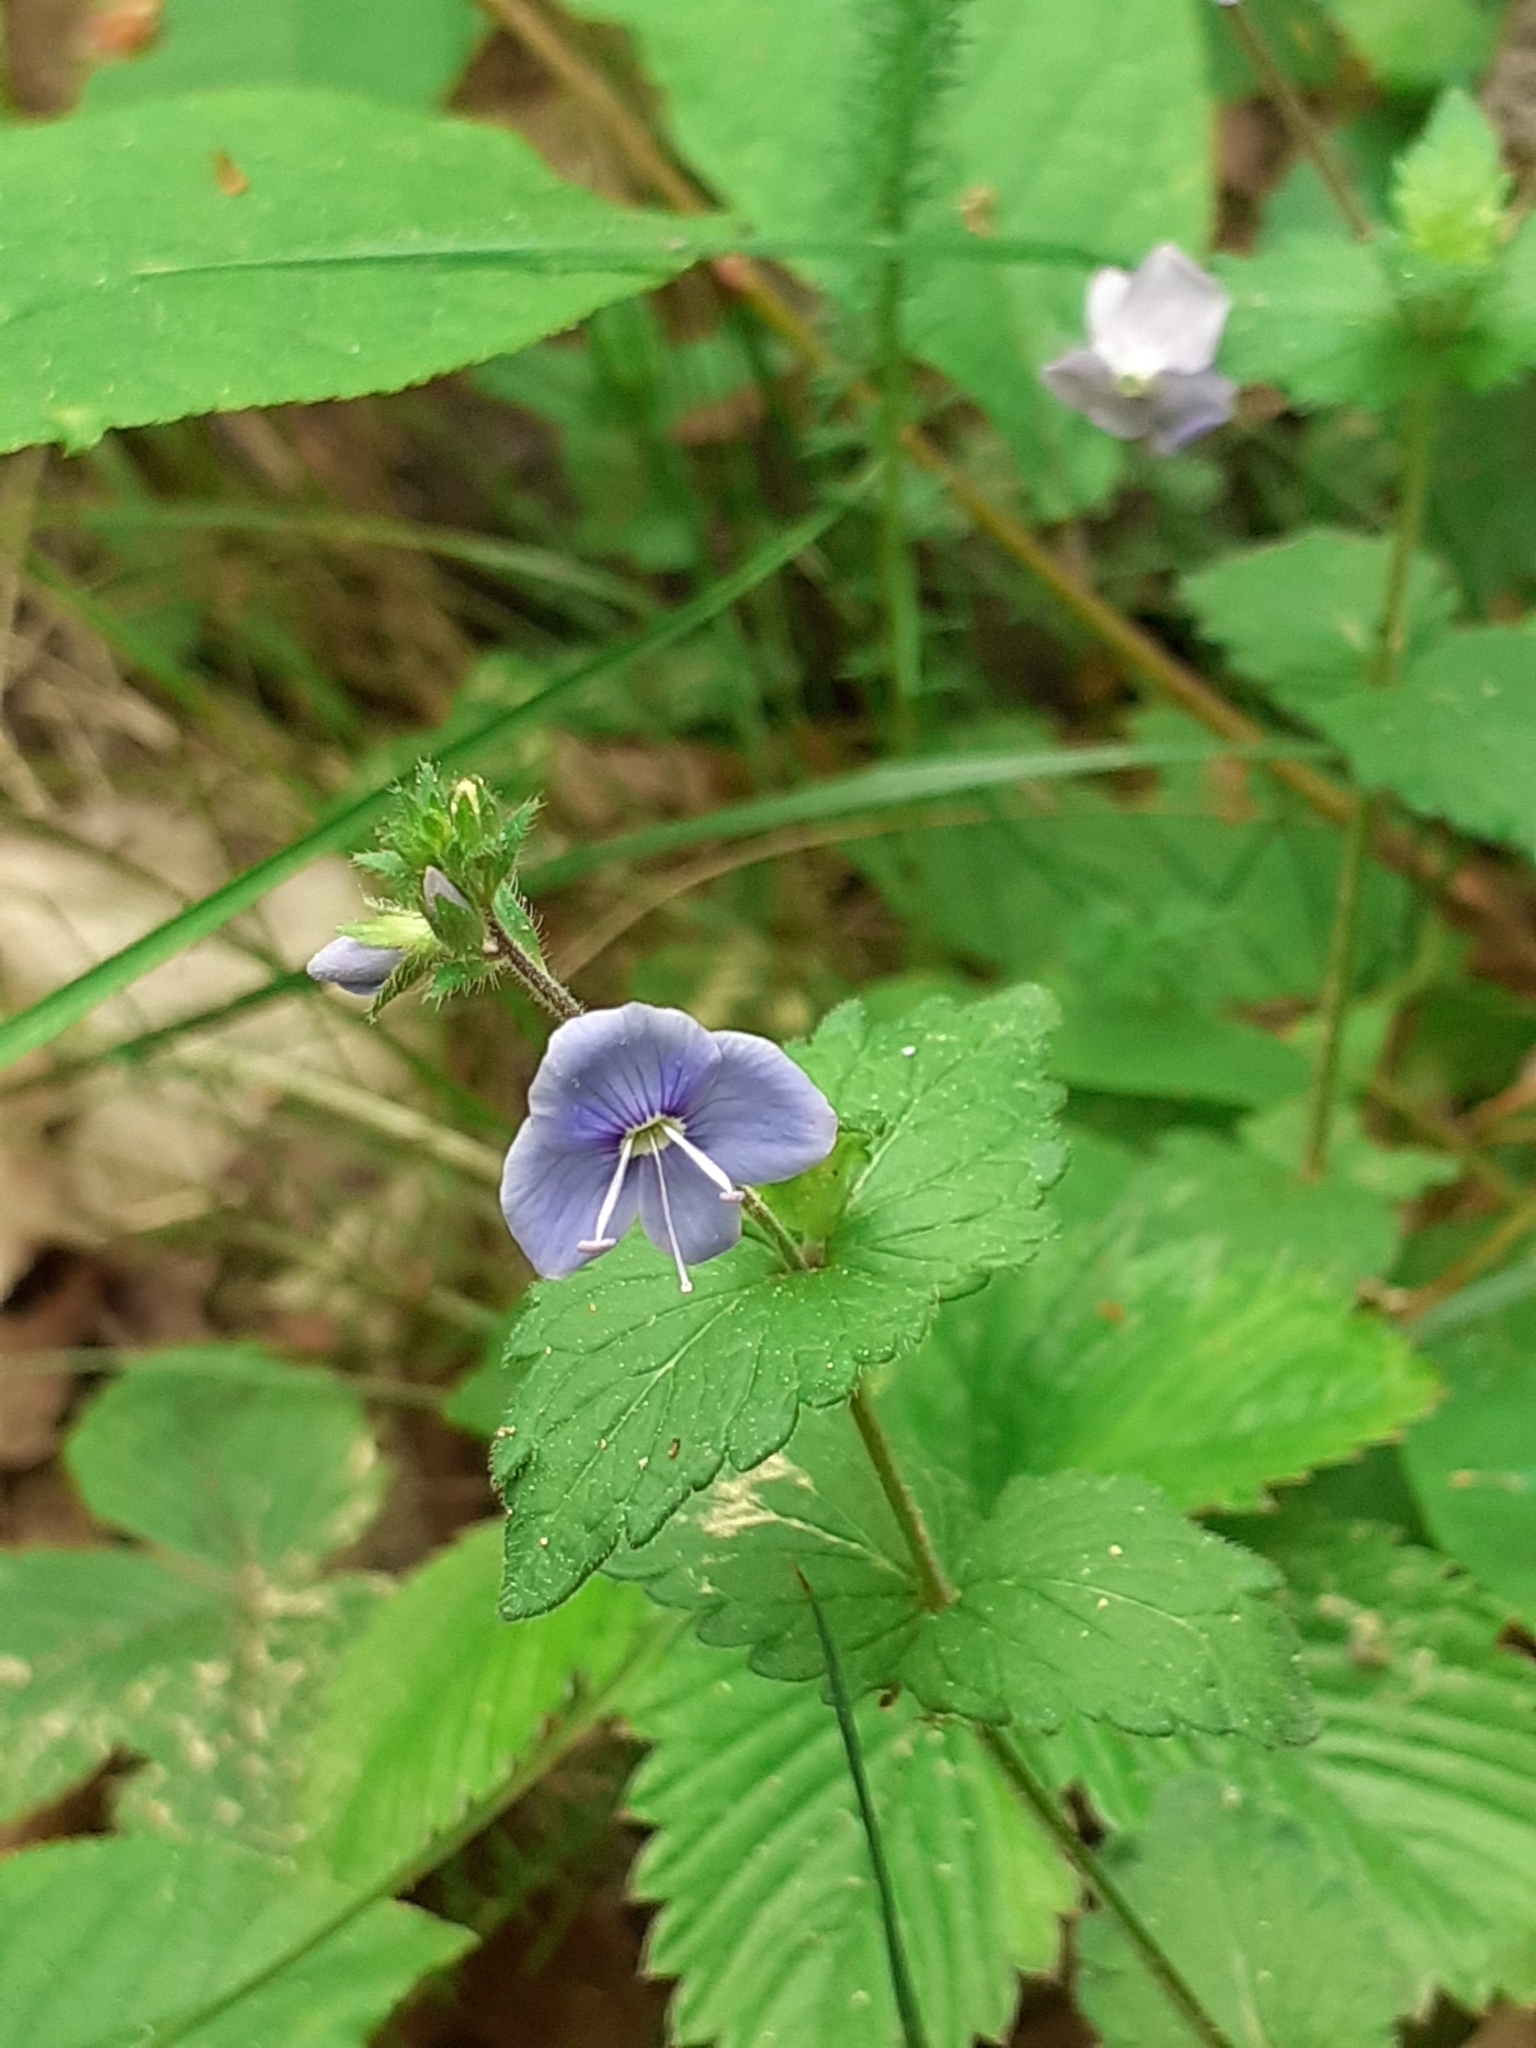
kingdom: Plantae
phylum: Tracheophyta
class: Magnoliopsida
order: Lamiales
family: Plantaginaceae
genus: Veronica
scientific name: Veronica chamaedrys
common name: Germander speedwell
